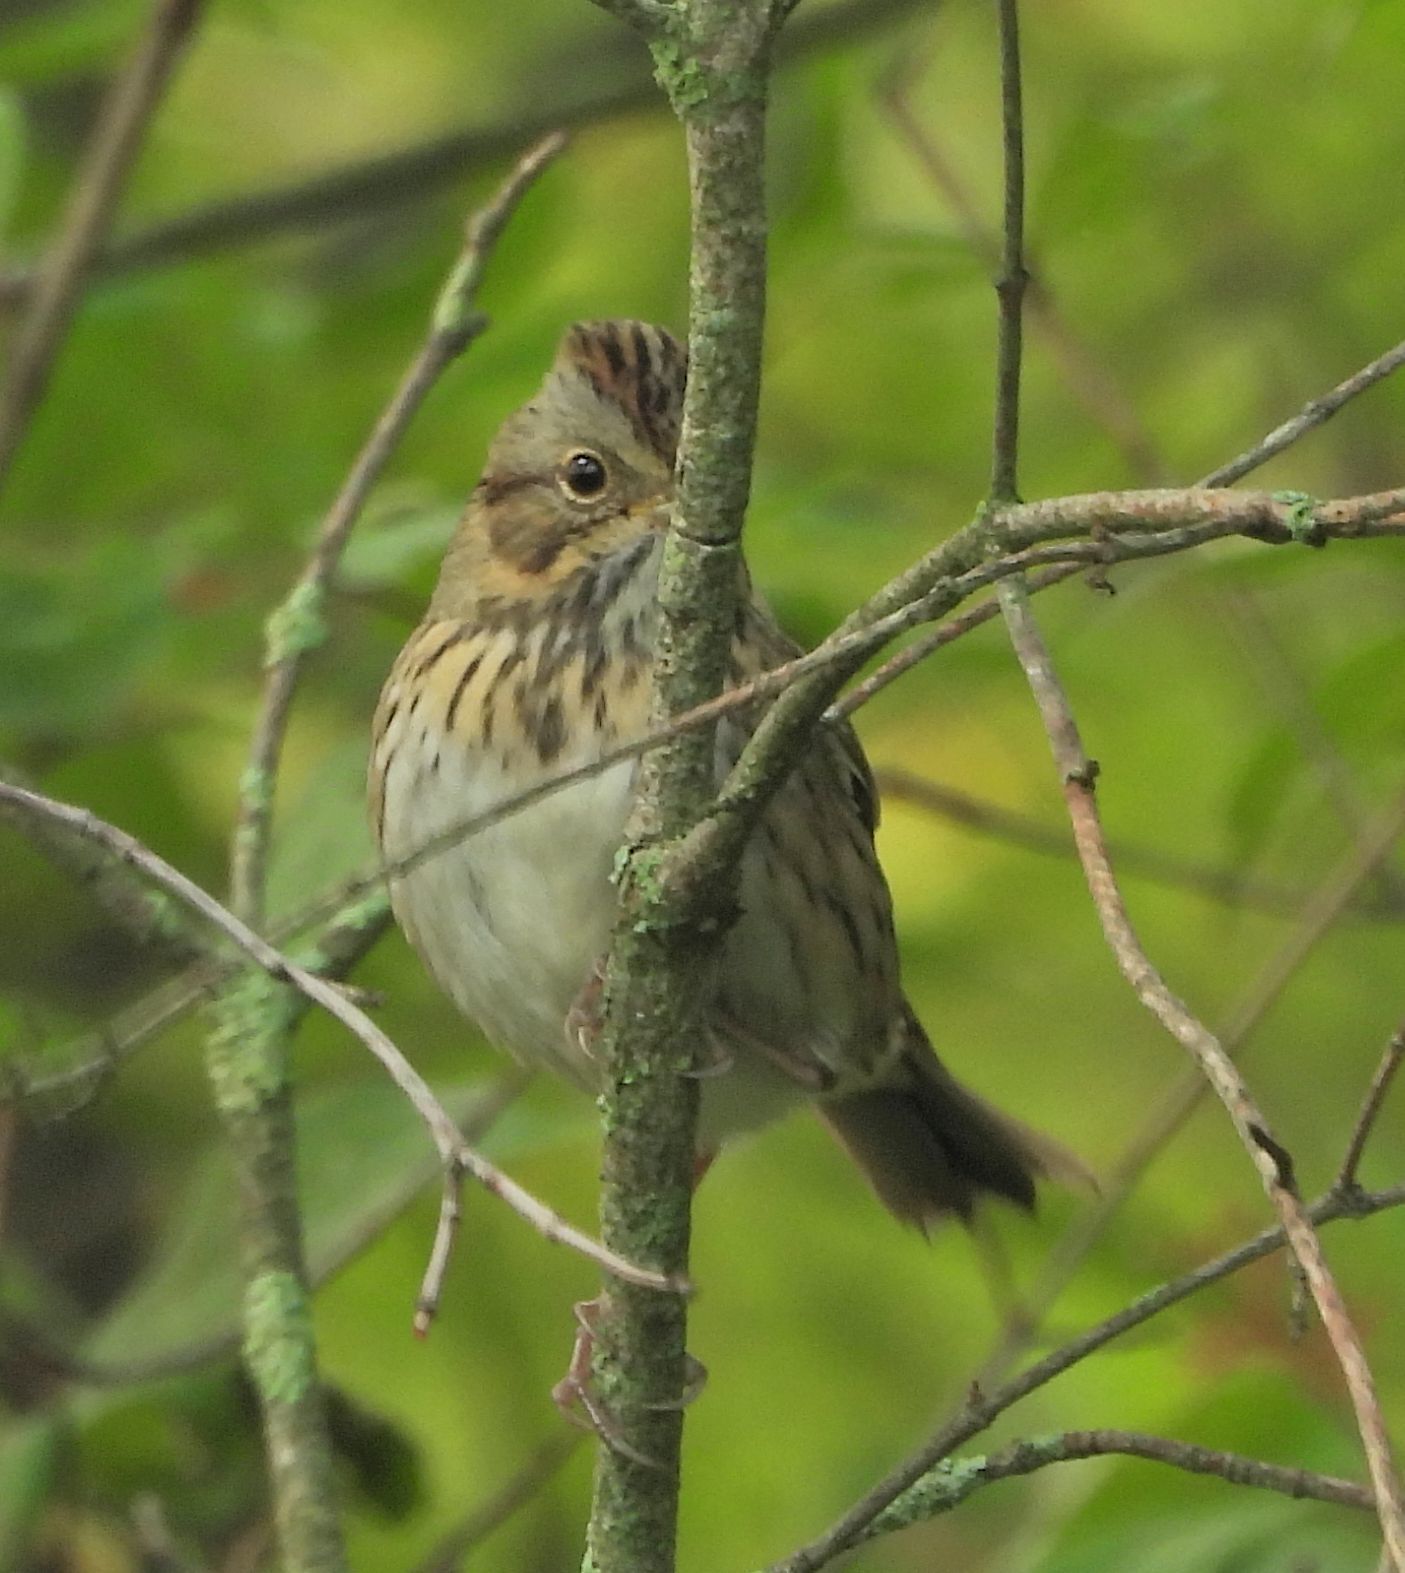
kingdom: Animalia
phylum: Chordata
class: Aves
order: Passeriformes
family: Passerellidae
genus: Melospiza
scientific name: Melospiza lincolnii
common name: Lincoln's sparrow
